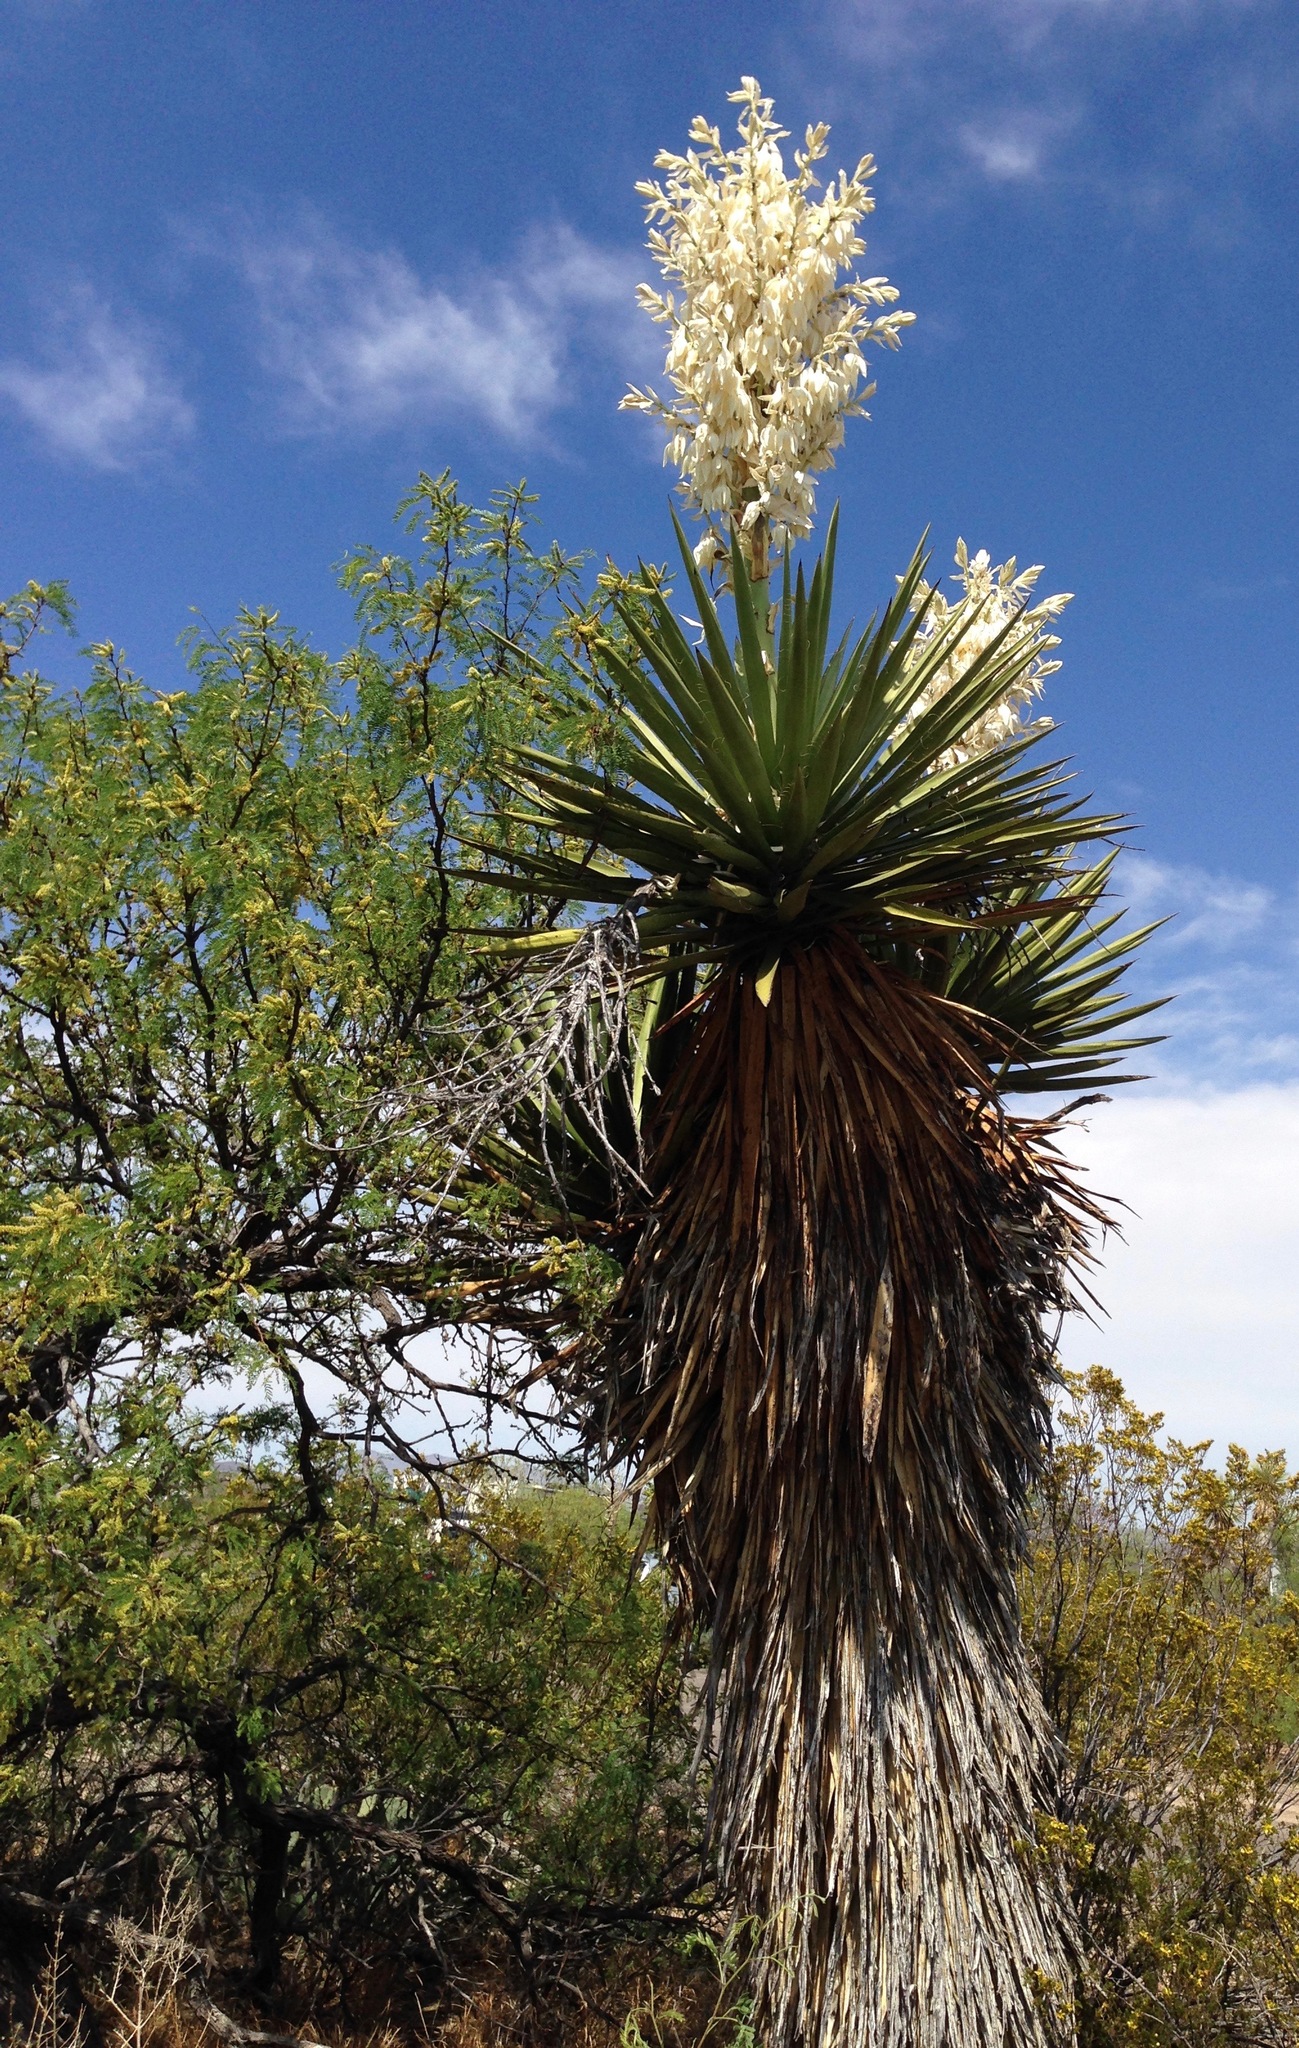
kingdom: Plantae
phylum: Tracheophyta
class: Liliopsida
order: Asparagales
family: Asparagaceae
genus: Yucca
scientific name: Yucca faxoniana
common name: Spanish dagger
